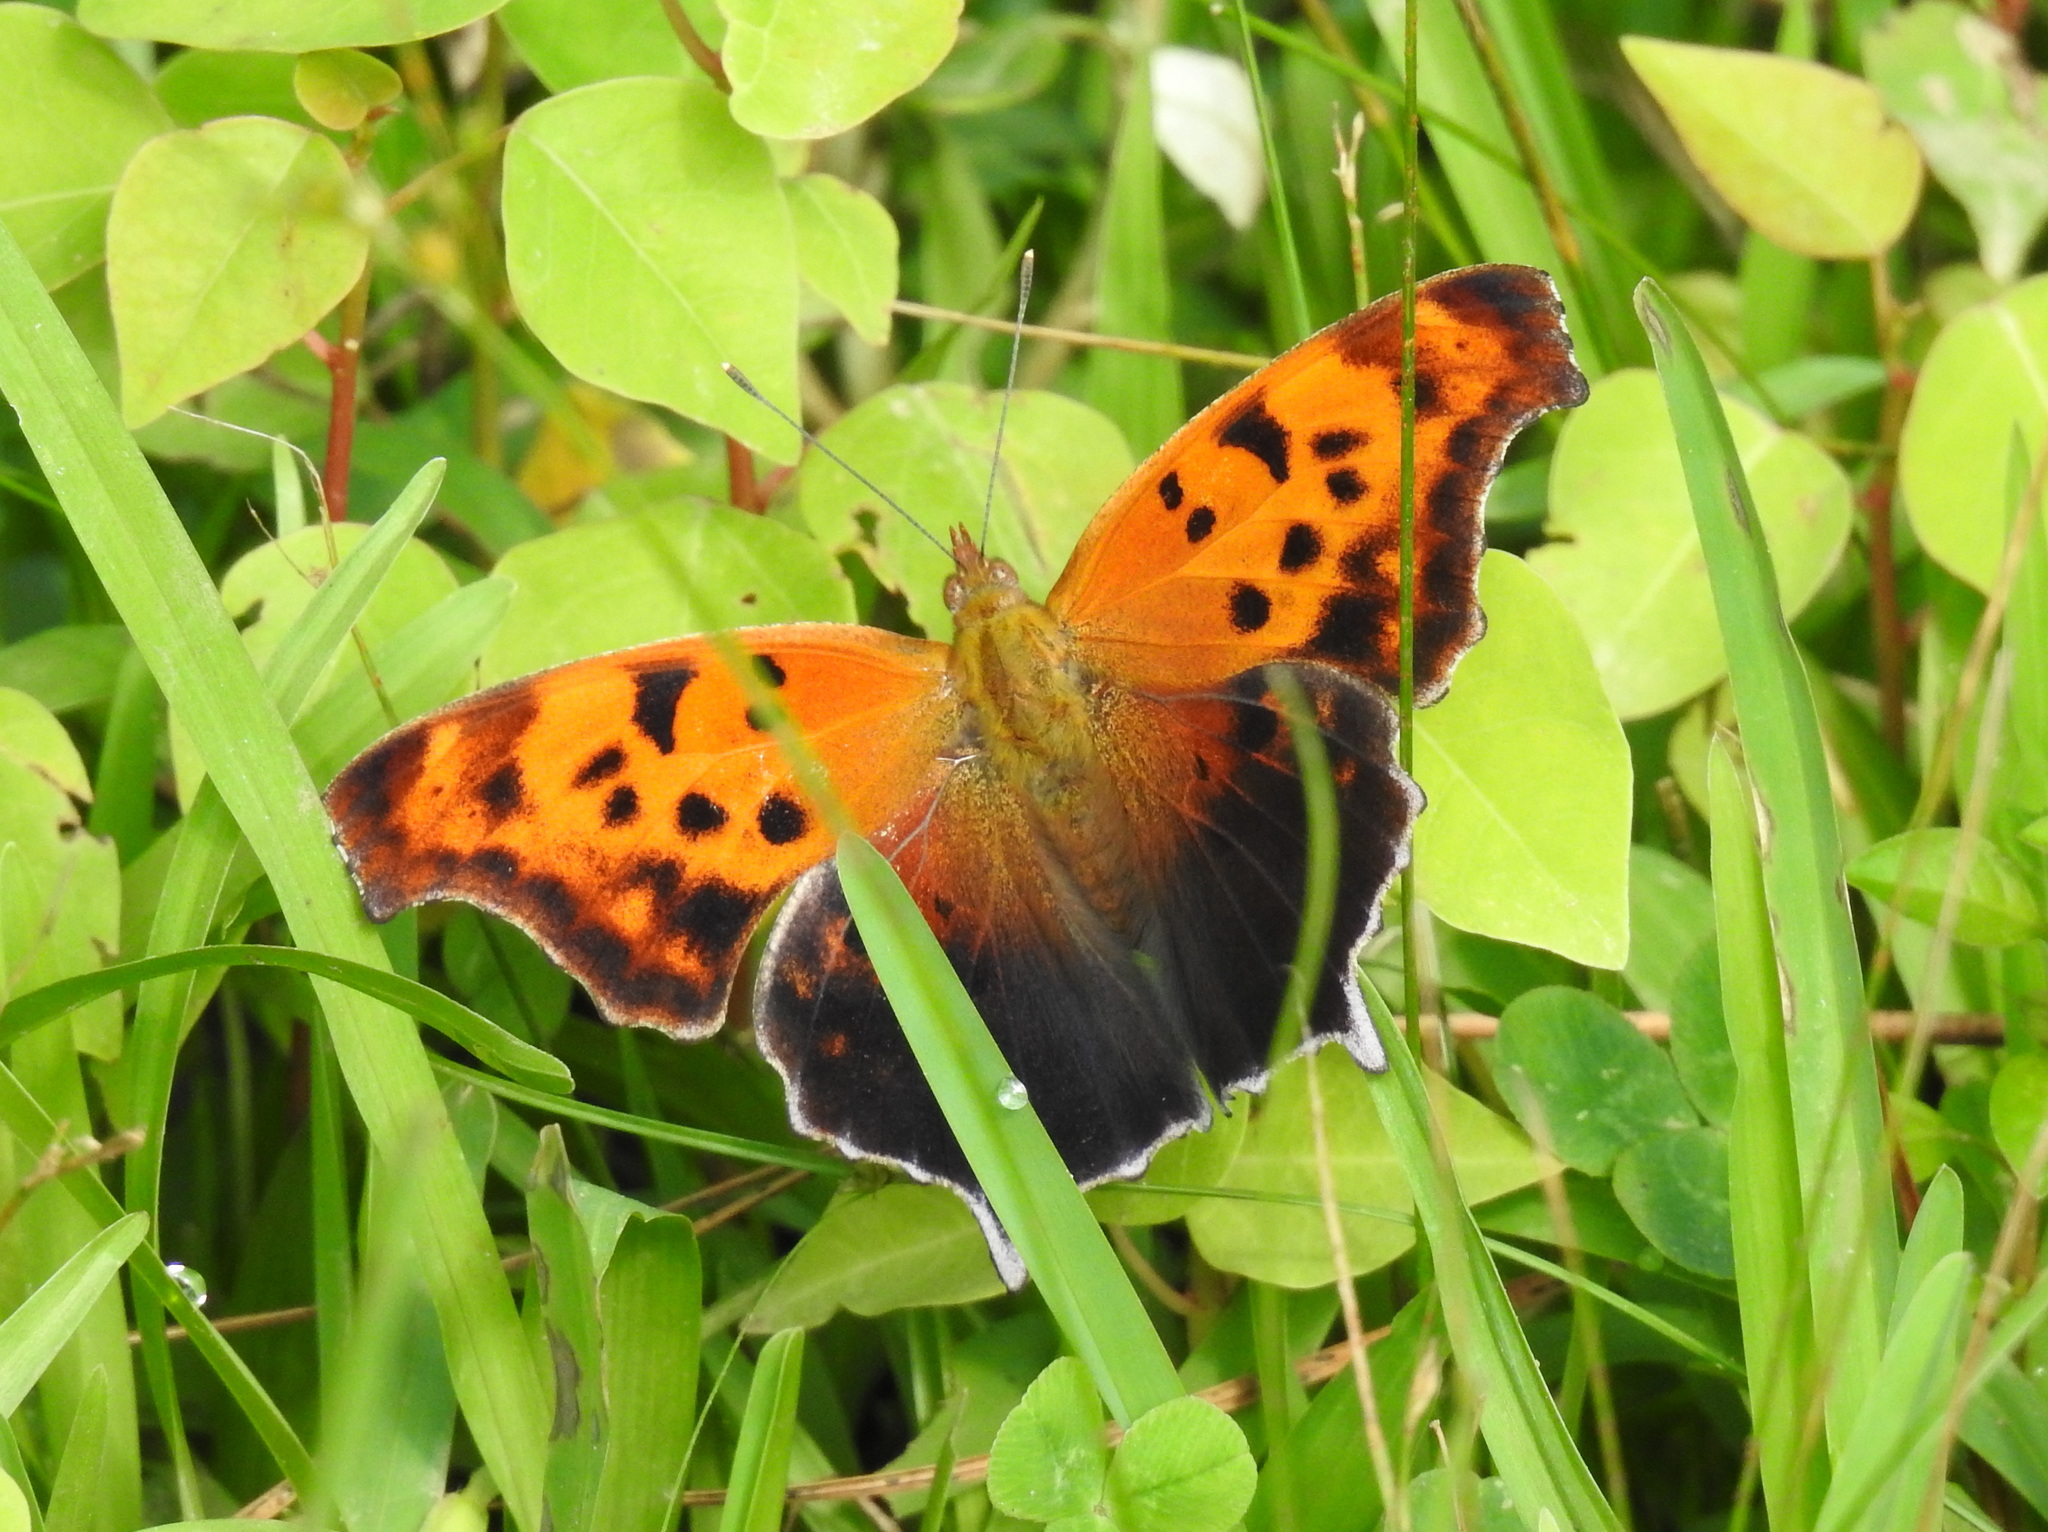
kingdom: Animalia
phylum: Arthropoda
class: Insecta
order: Lepidoptera
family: Nymphalidae
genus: Polygonia
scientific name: Polygonia interrogationis
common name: Question mark
